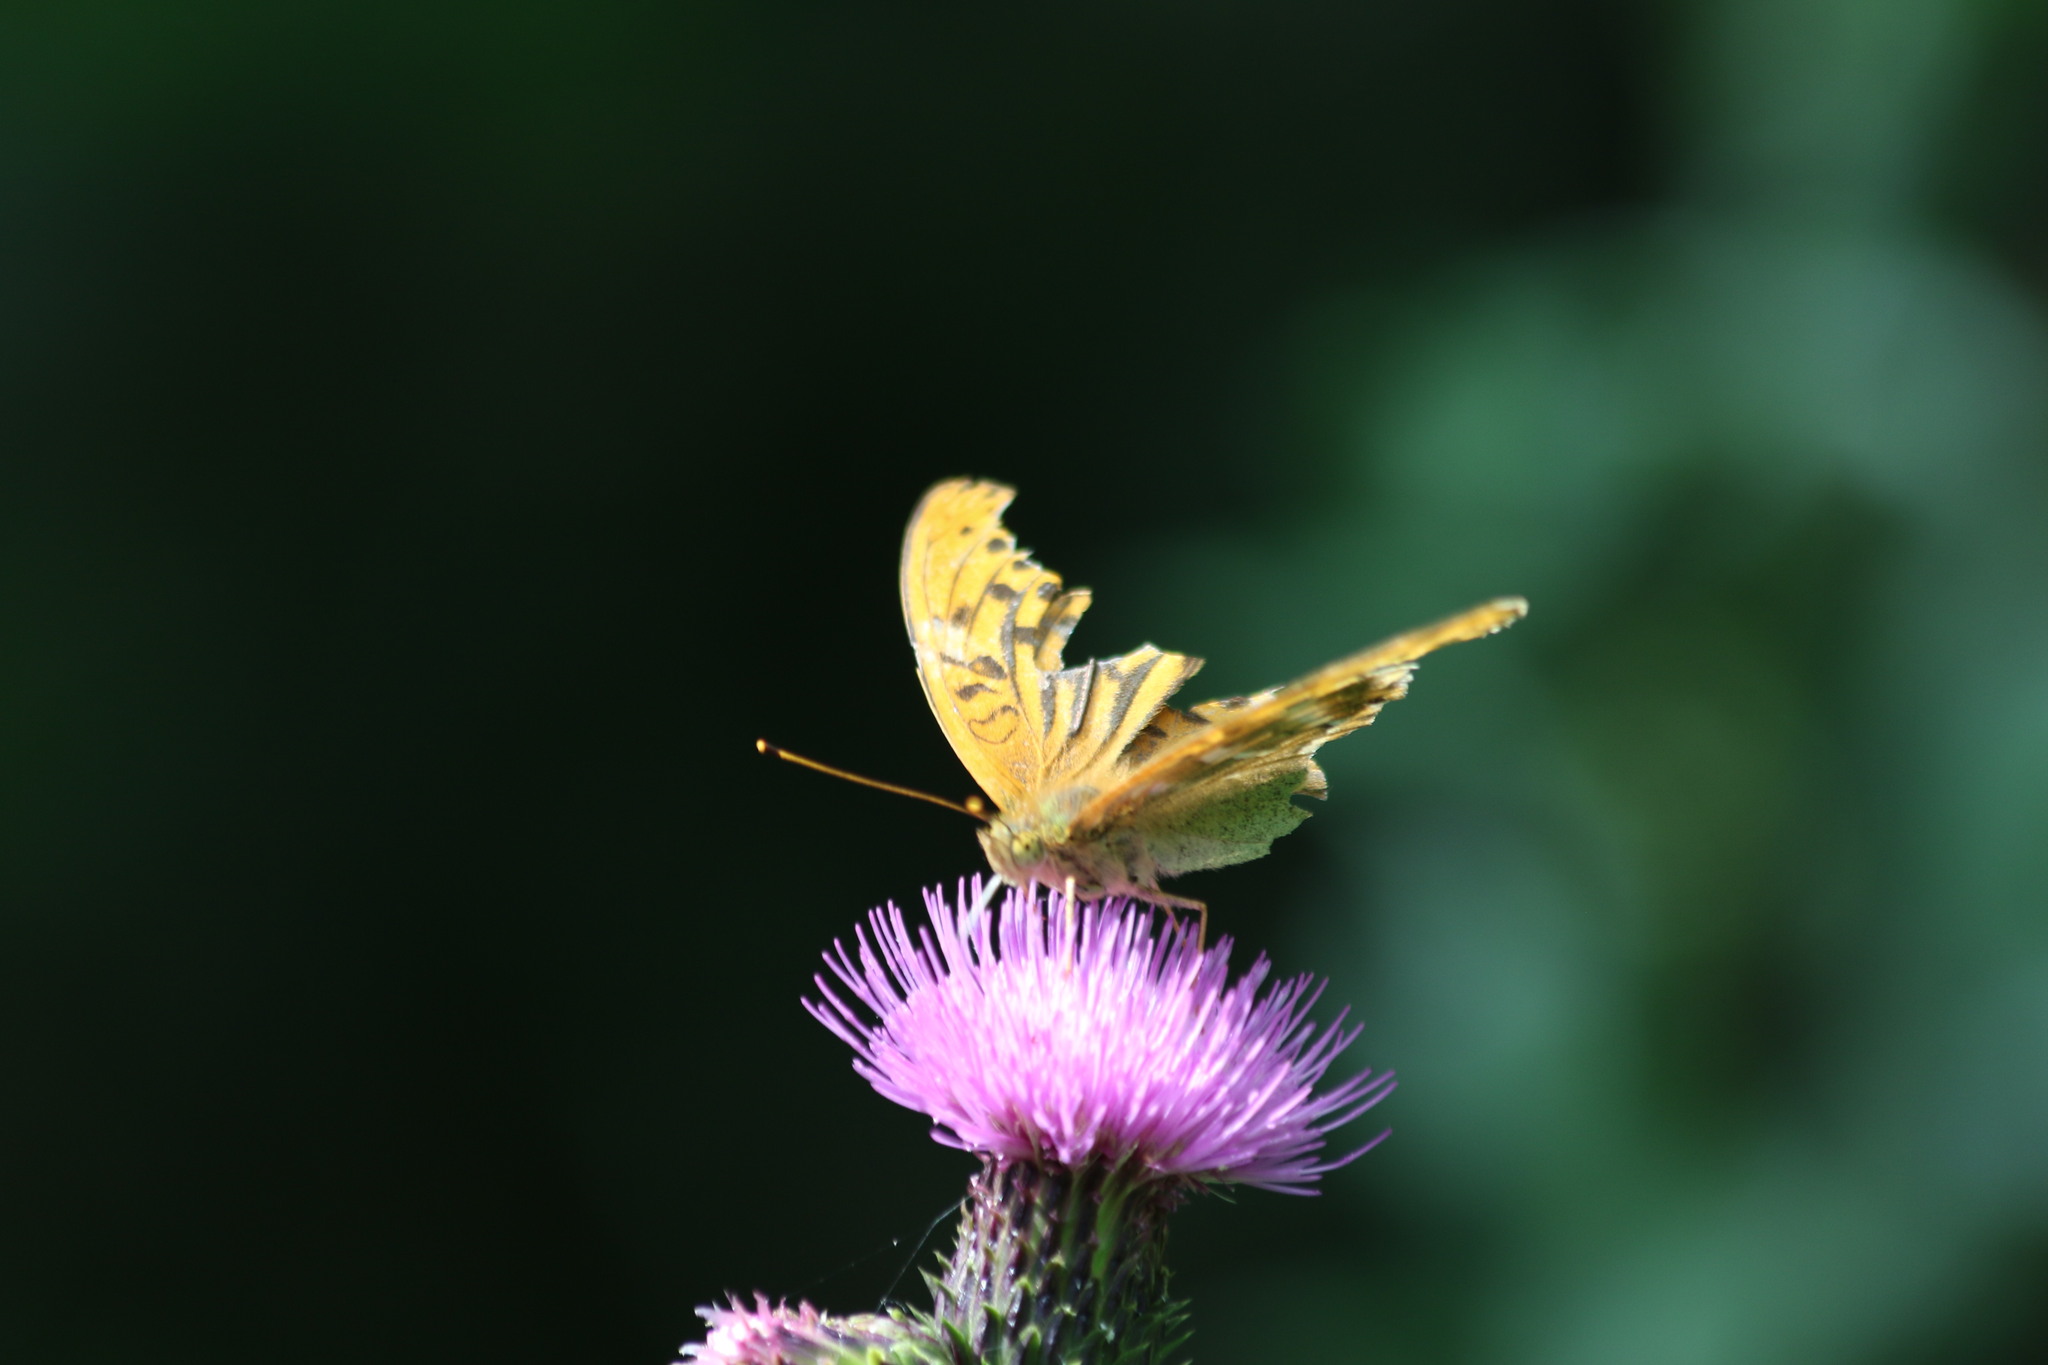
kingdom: Animalia
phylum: Arthropoda
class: Insecta
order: Lepidoptera
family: Nymphalidae
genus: Argynnis
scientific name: Argynnis paphia
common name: Silver-washed fritillary
